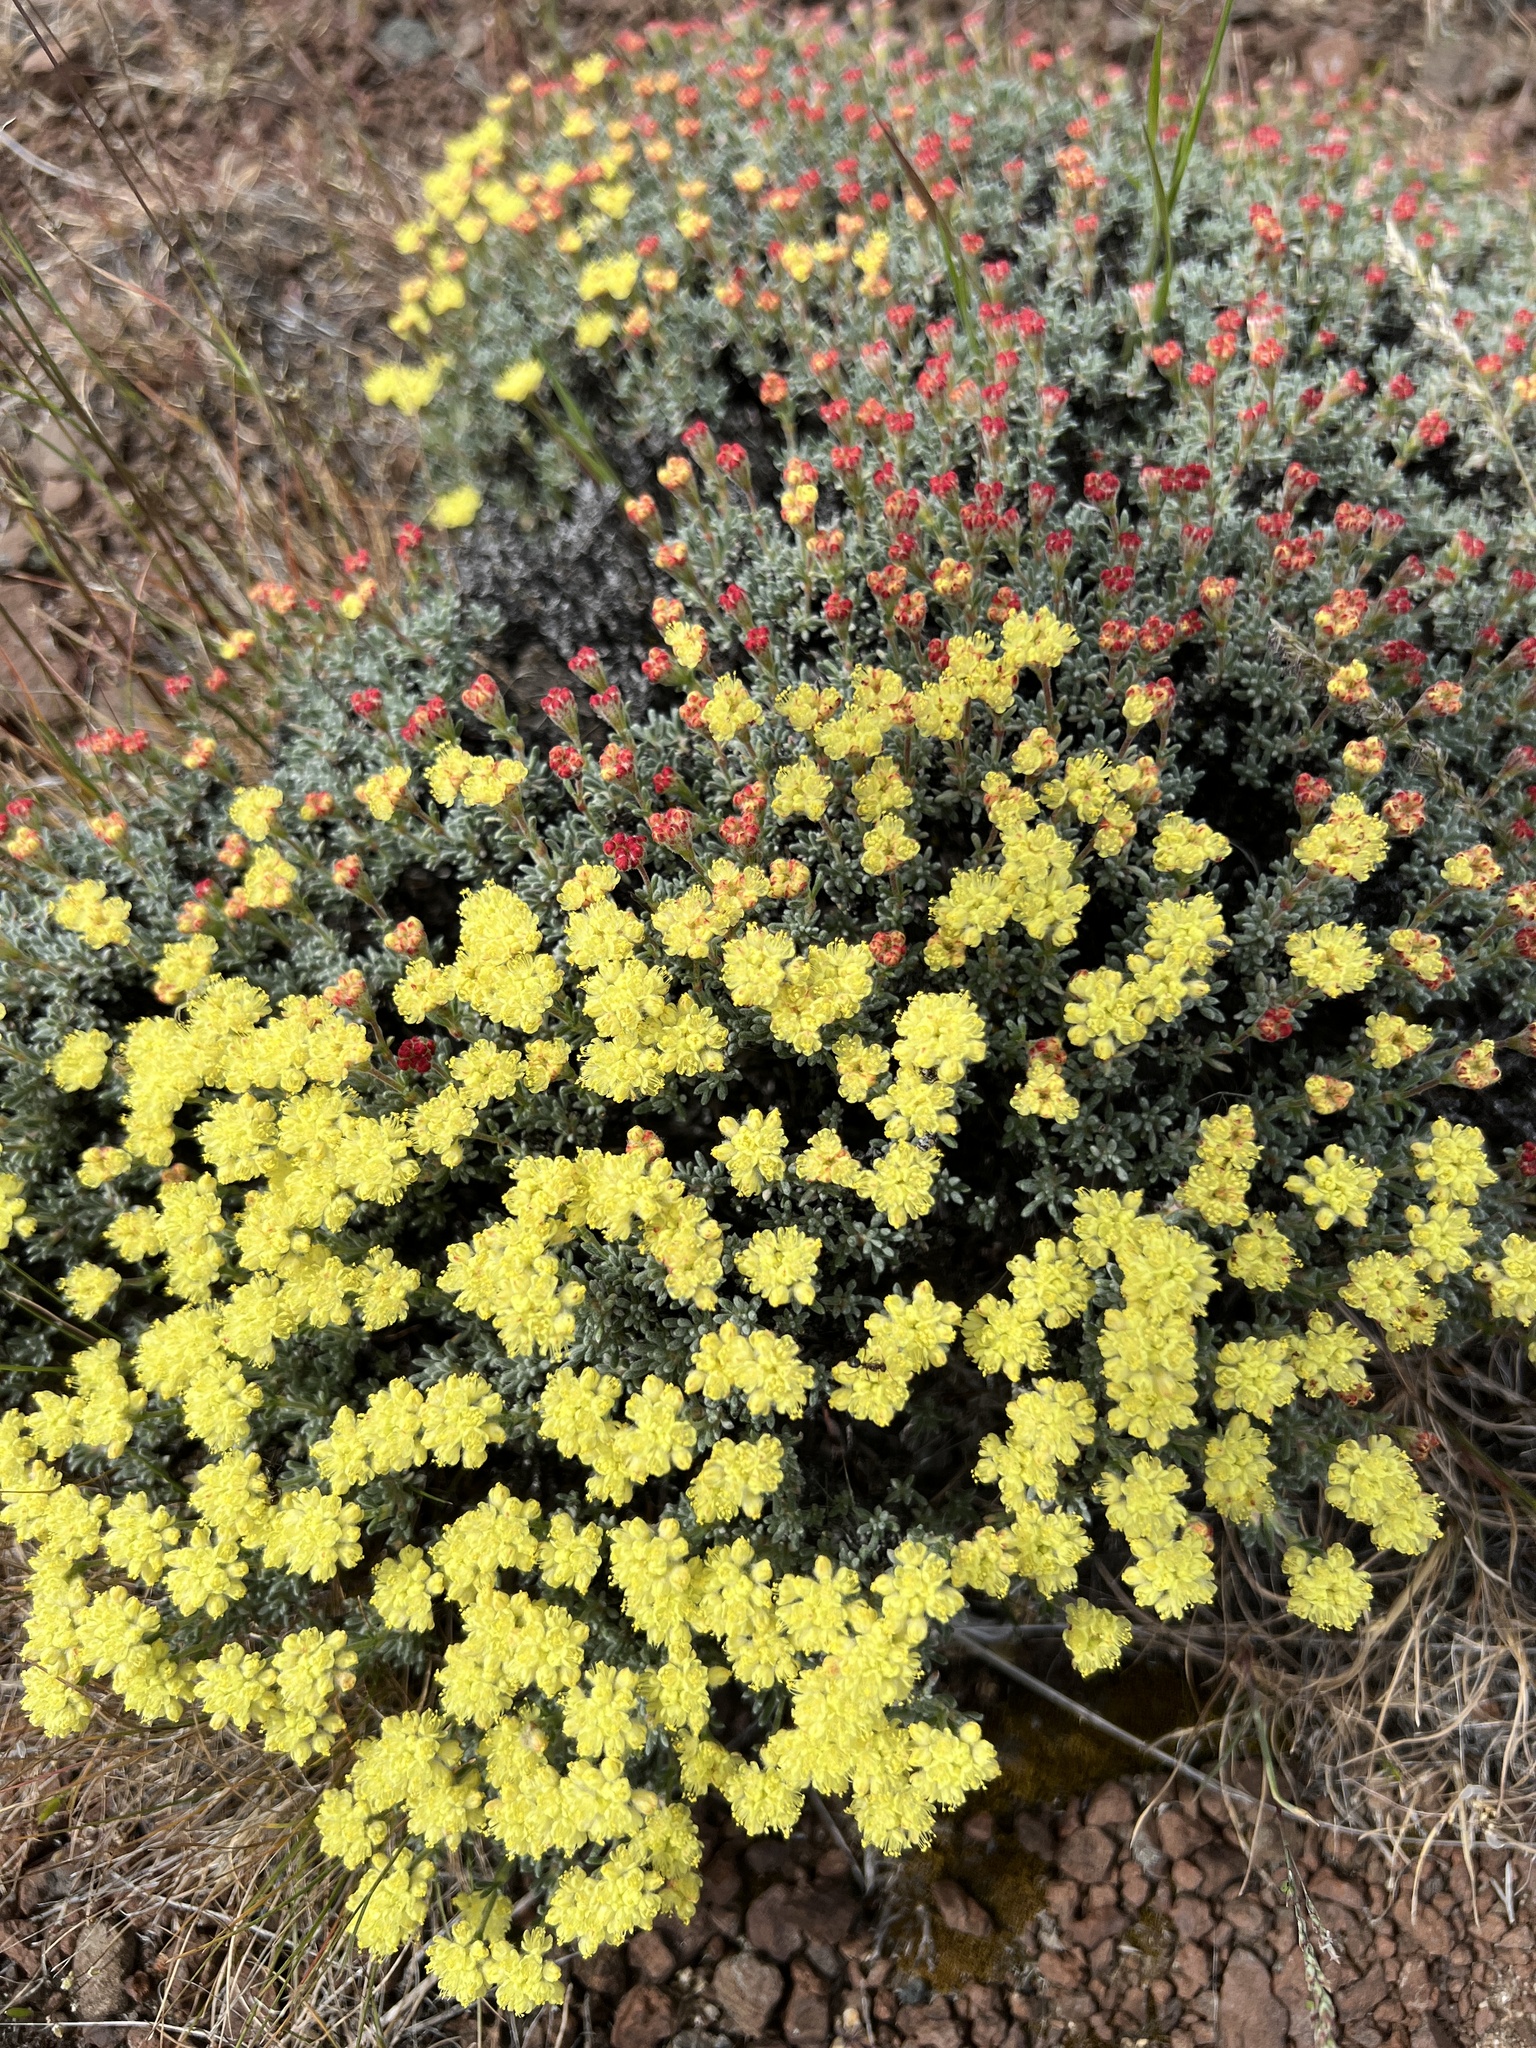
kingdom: Plantae
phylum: Tracheophyta
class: Magnoliopsida
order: Caryophyllales
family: Polygonaceae
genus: Eriogonum
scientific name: Eriogonum thymoides
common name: Thyme-leaf wild buckwheat
